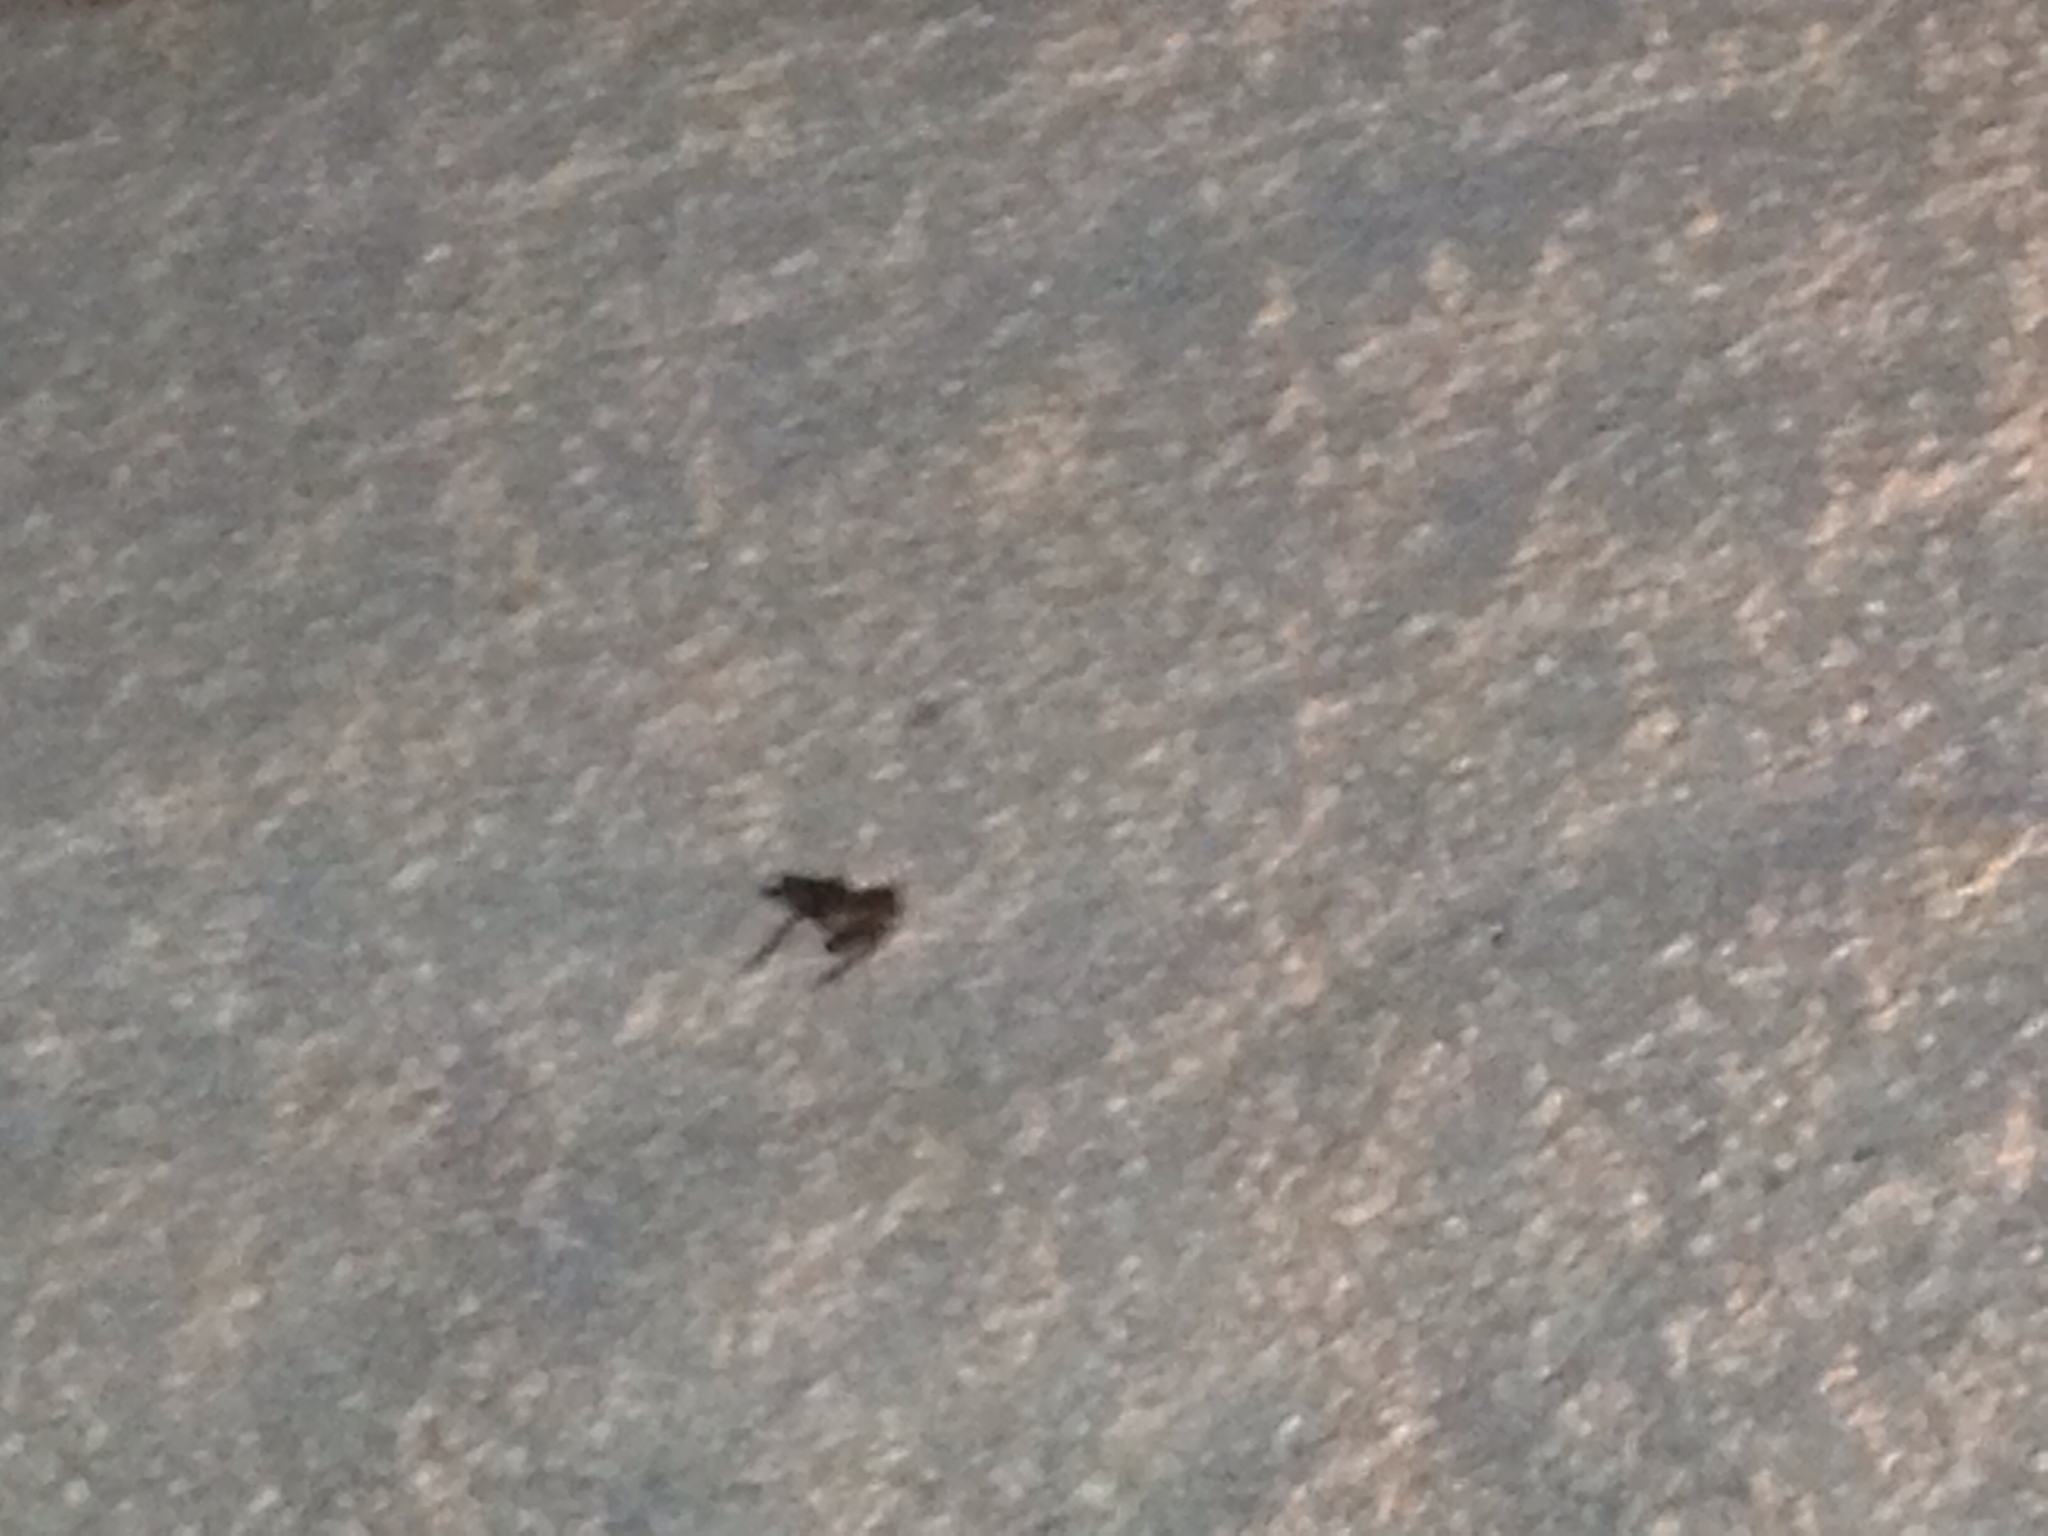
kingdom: Animalia
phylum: Chordata
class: Amphibia
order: Anura
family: Hylidae
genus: Hyla
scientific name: Hyla sarda
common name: Sardinian tree frog
